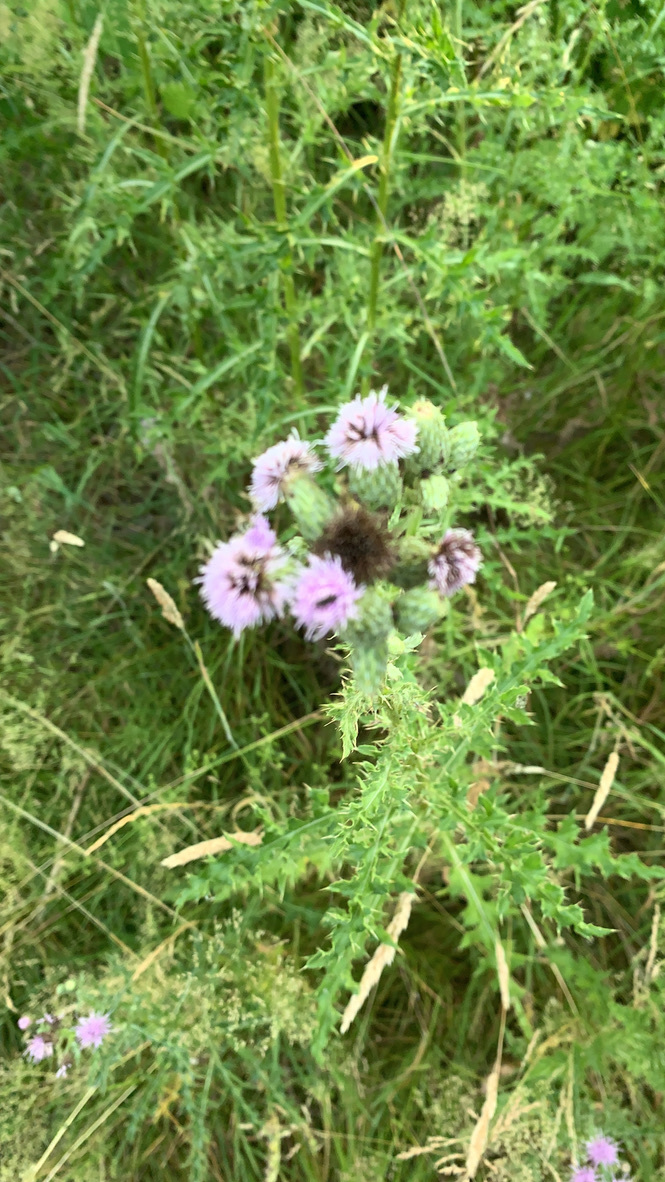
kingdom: Plantae
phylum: Tracheophyta
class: Magnoliopsida
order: Asterales
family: Asteraceae
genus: Cirsium
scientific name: Cirsium arvense
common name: Creeping thistle
